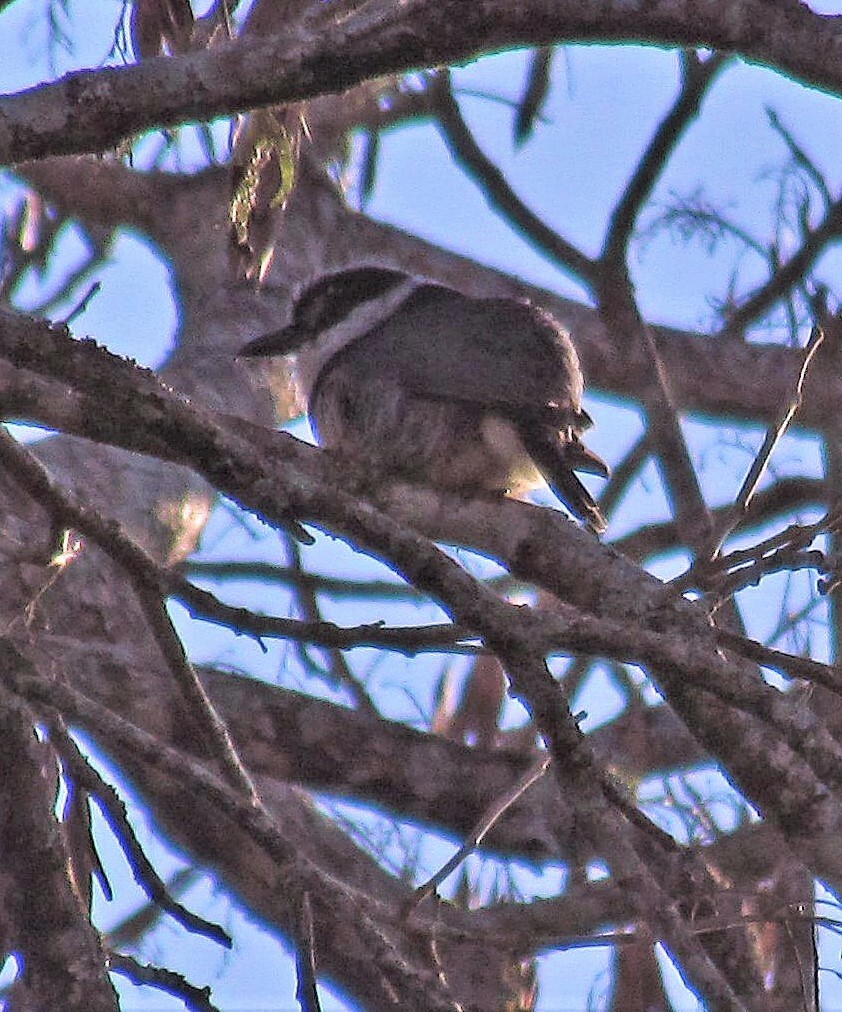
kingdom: Animalia
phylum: Chordata
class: Aves
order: Piciformes
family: Bucconidae
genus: Notharchus
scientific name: Notharchus swainsoni
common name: Buff-bellied puffbird
